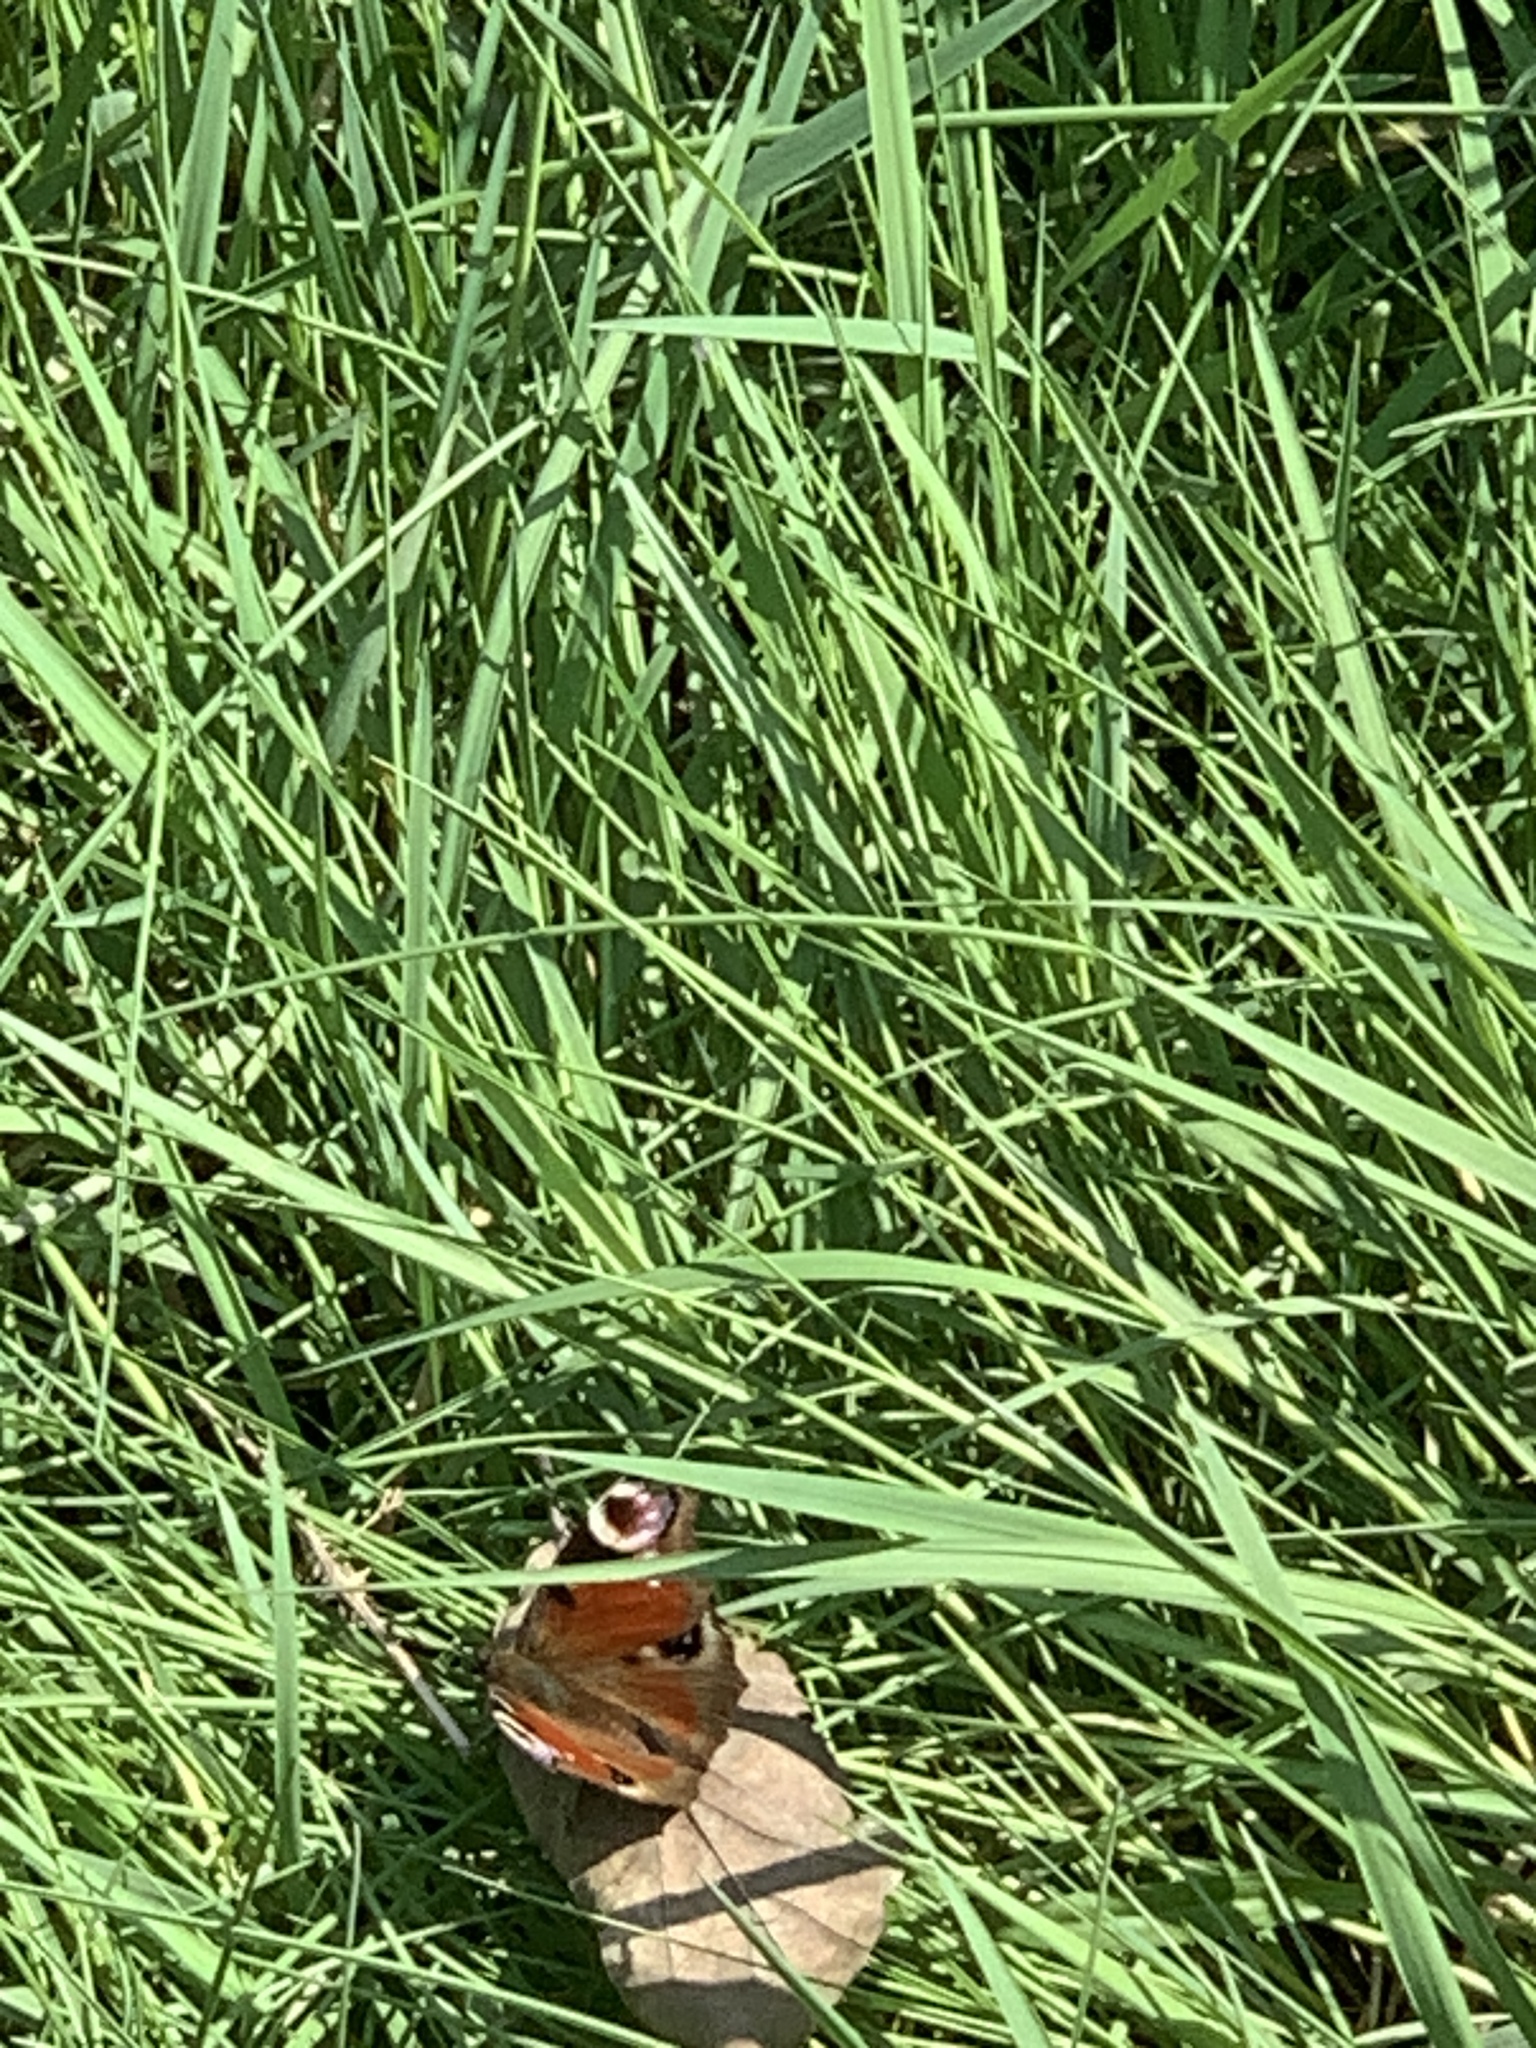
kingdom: Animalia
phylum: Arthropoda
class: Insecta
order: Lepidoptera
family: Nymphalidae
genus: Aglais
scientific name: Aglais io
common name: Peacock
